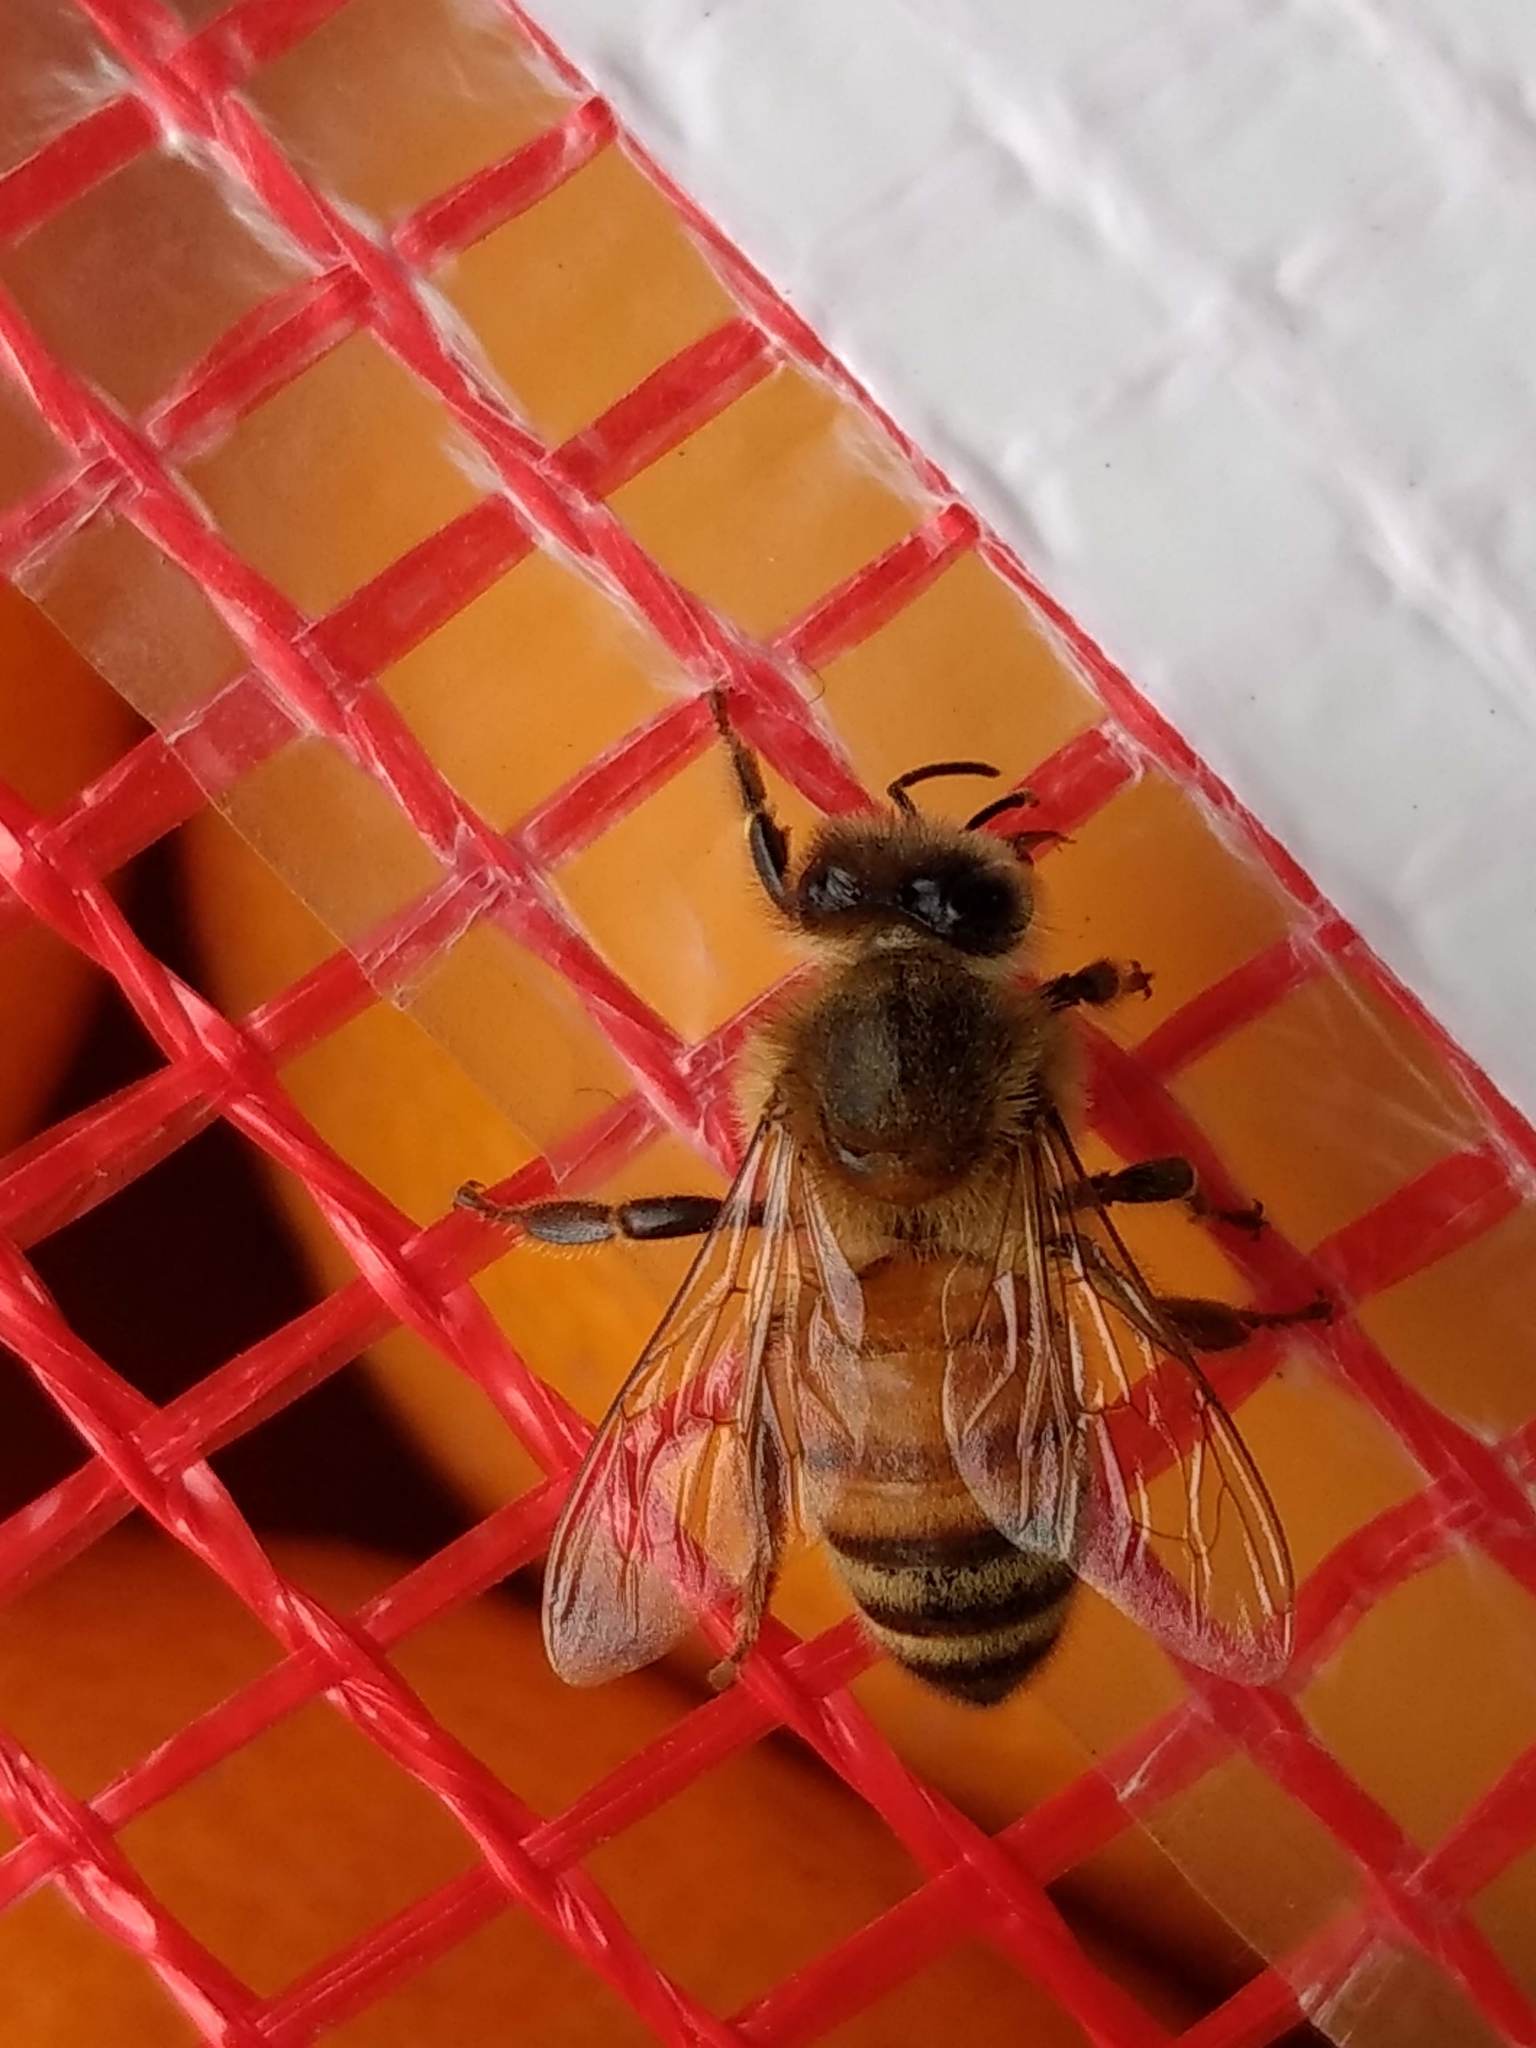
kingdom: Animalia
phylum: Arthropoda
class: Insecta
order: Hymenoptera
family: Apidae
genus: Apis
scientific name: Apis mellifera
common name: Honey bee
